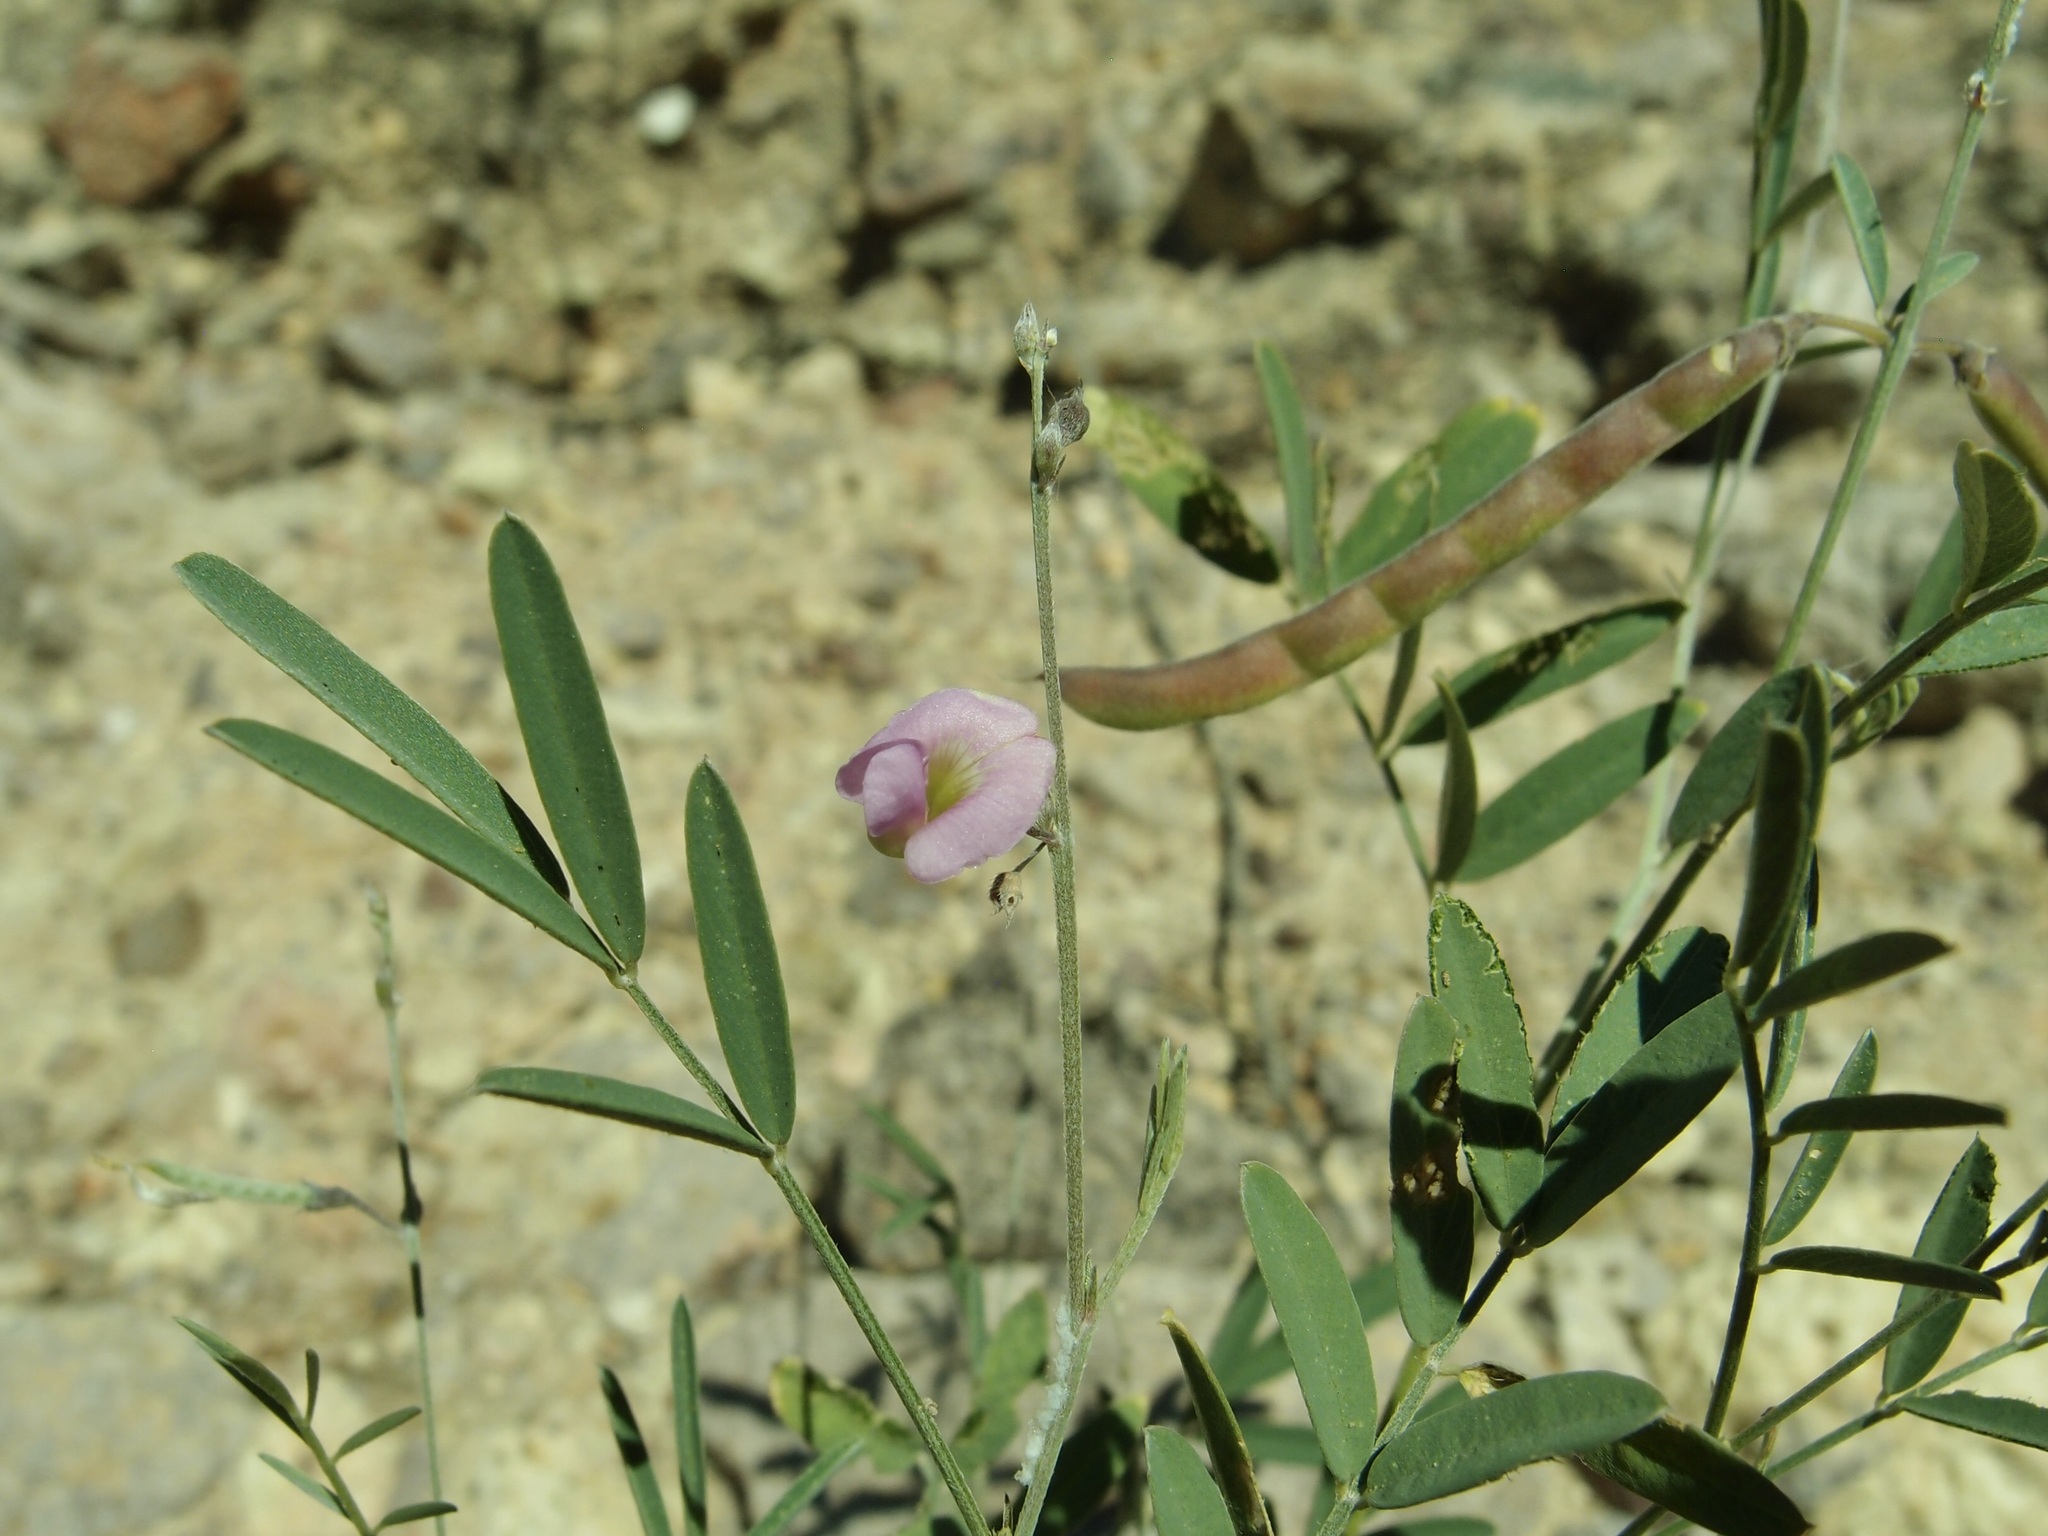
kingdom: Plantae
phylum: Tracheophyta
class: Magnoliopsida
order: Fabales
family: Fabaceae
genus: Tephrosia
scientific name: Tephrosia vicioides
